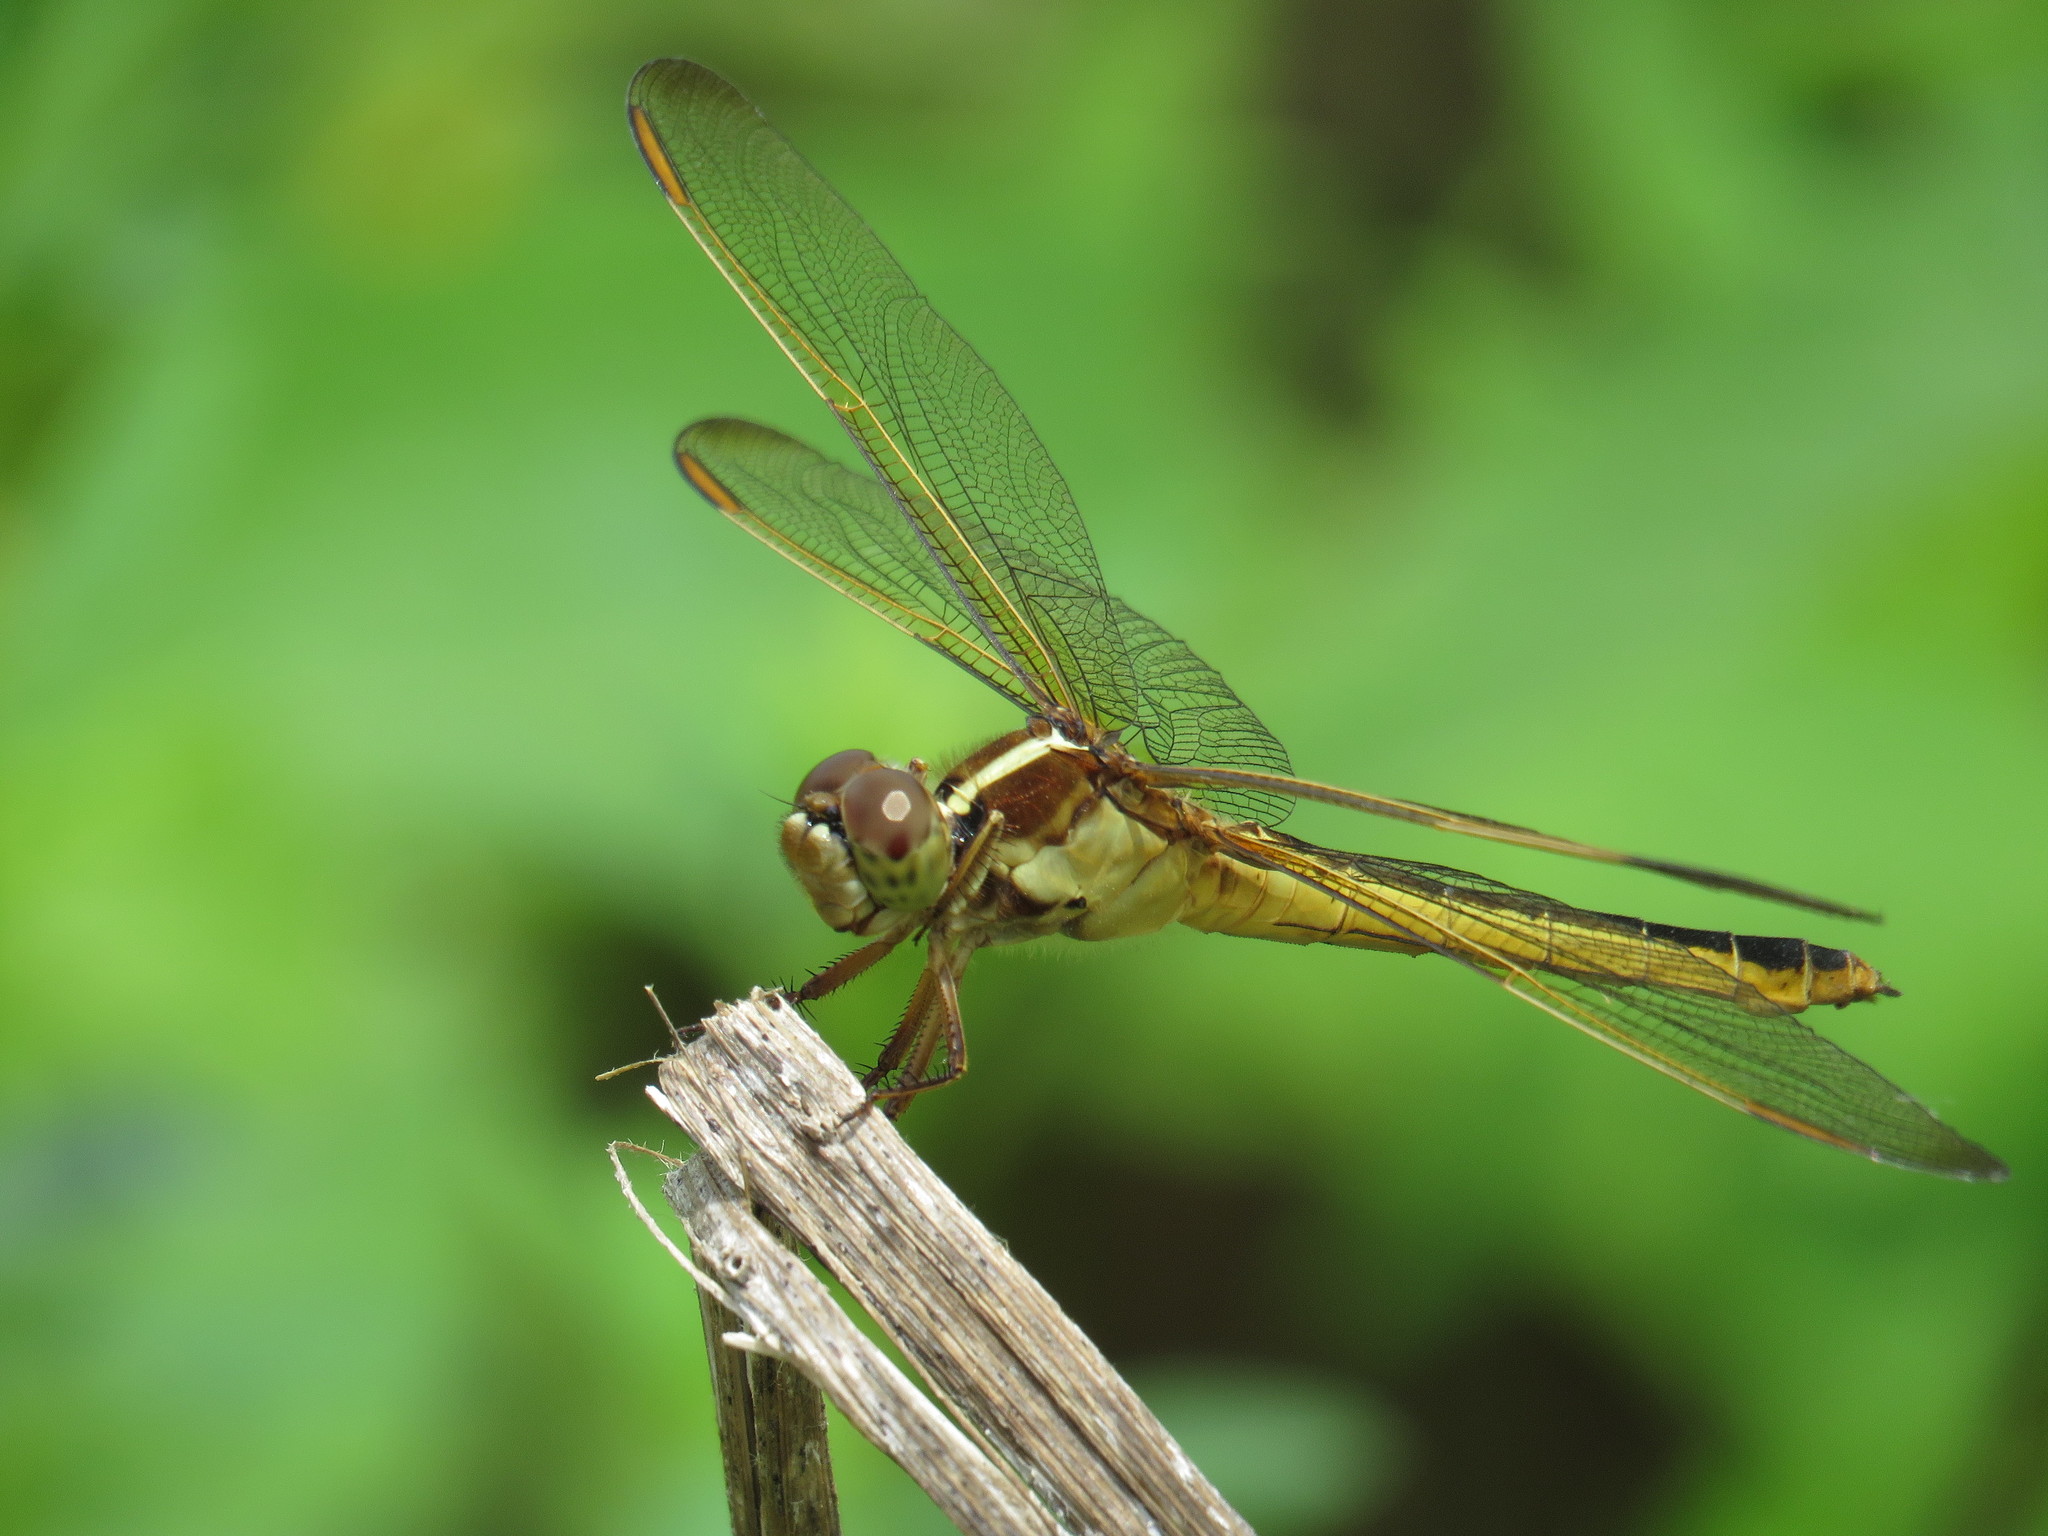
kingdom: Animalia
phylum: Arthropoda
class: Insecta
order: Odonata
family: Libellulidae
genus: Libellula
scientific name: Libellula needhami
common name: Needham's skimmer
